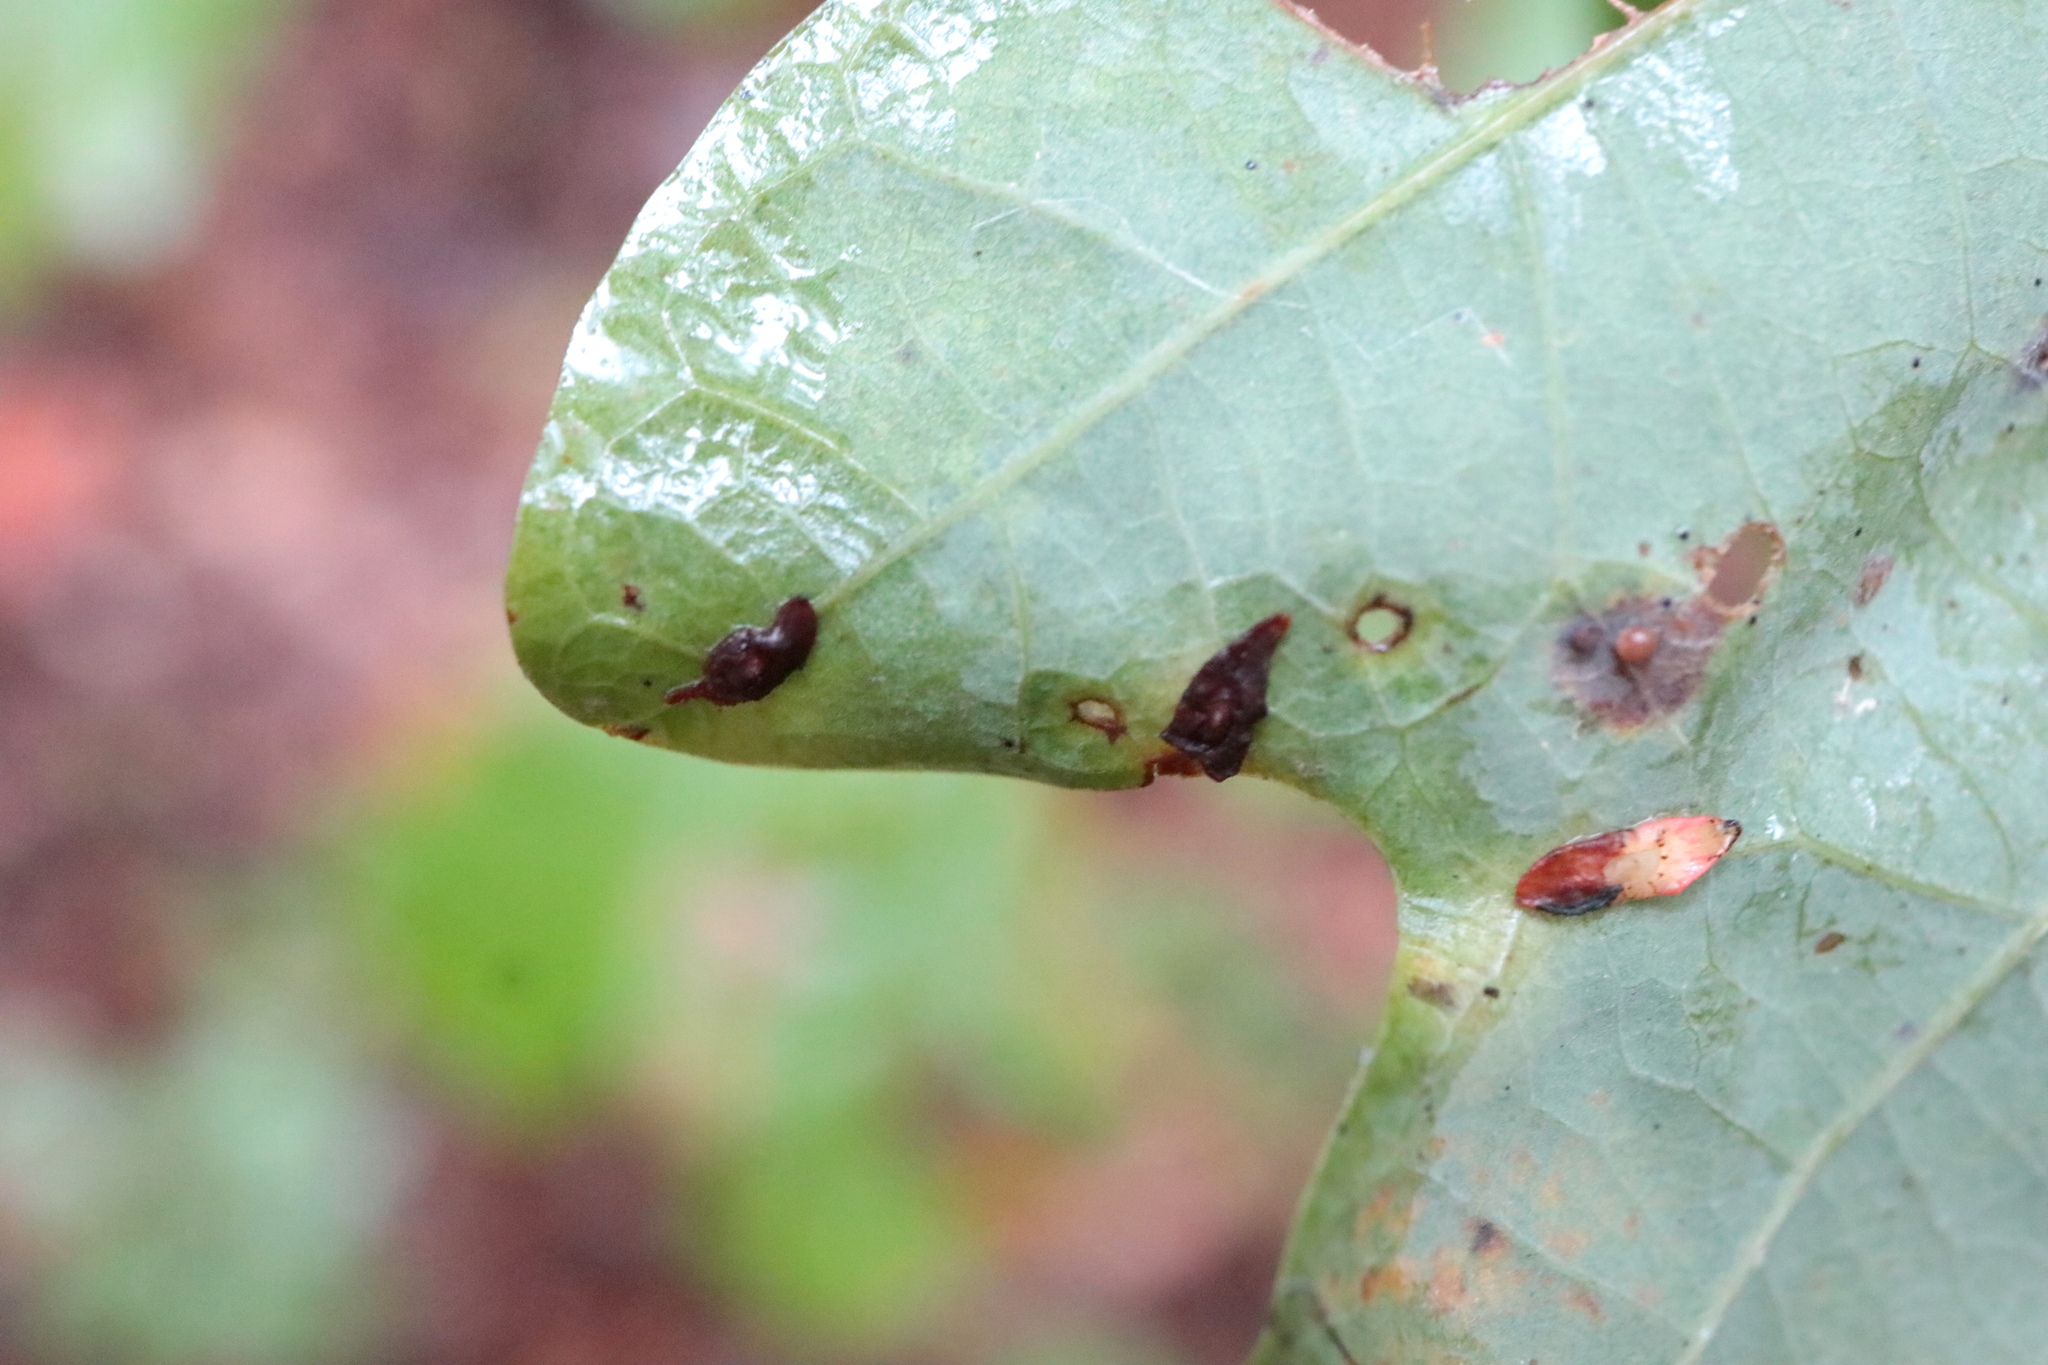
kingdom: Animalia
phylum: Arthropoda
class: Insecta
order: Hymenoptera
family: Cynipidae
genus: Phylloteras
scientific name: Phylloteras
